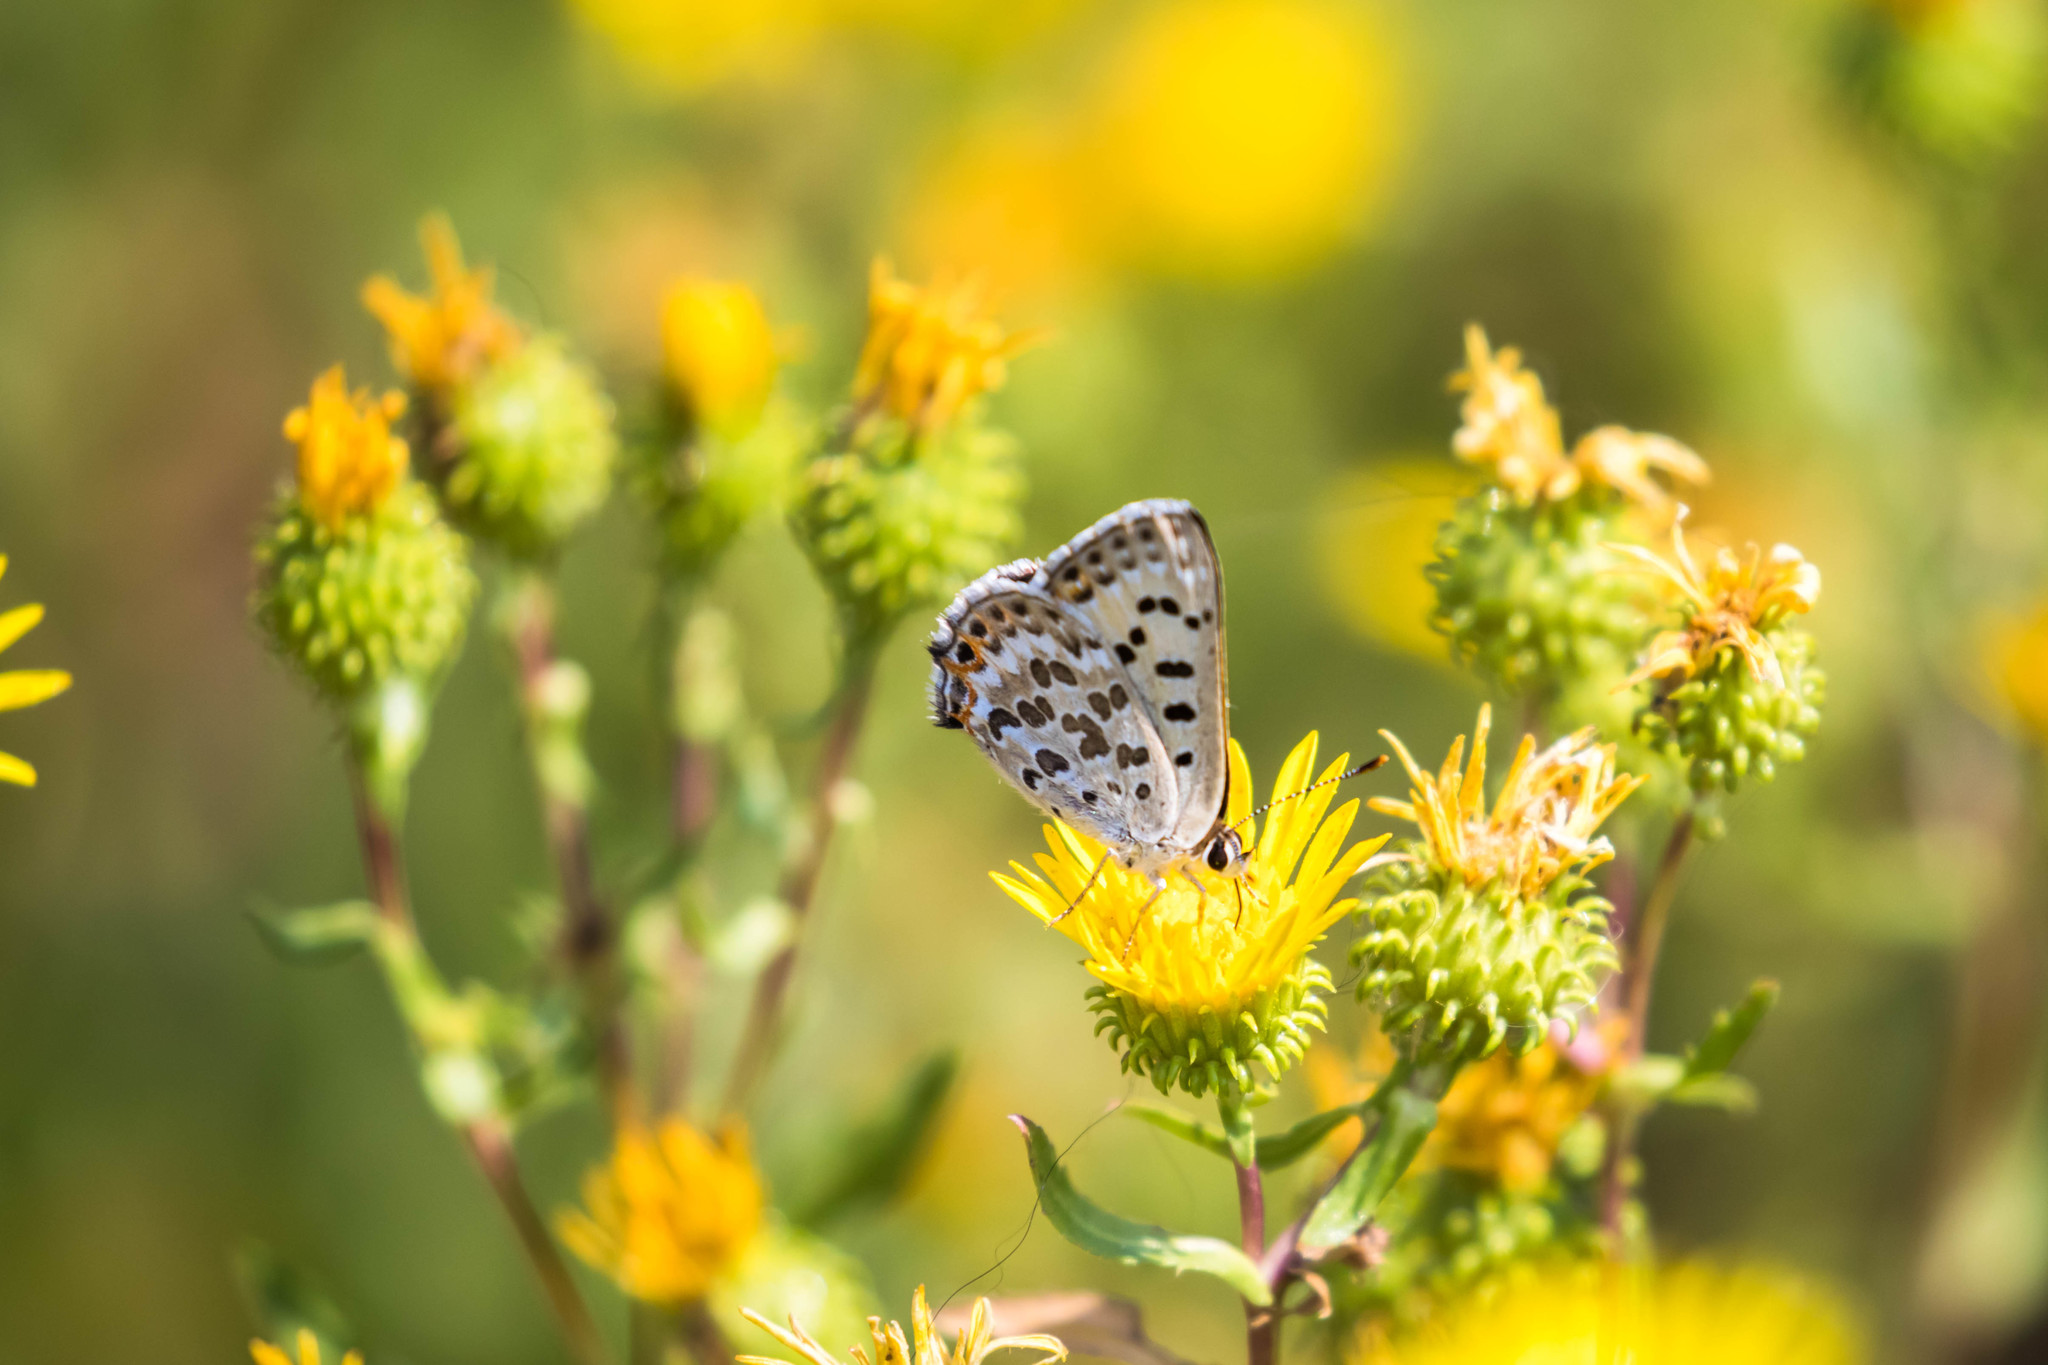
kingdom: Animalia
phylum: Arthropoda
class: Insecta
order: Lepidoptera
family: Lycaenidae
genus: Tharsalea
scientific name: Tharsalea editha
